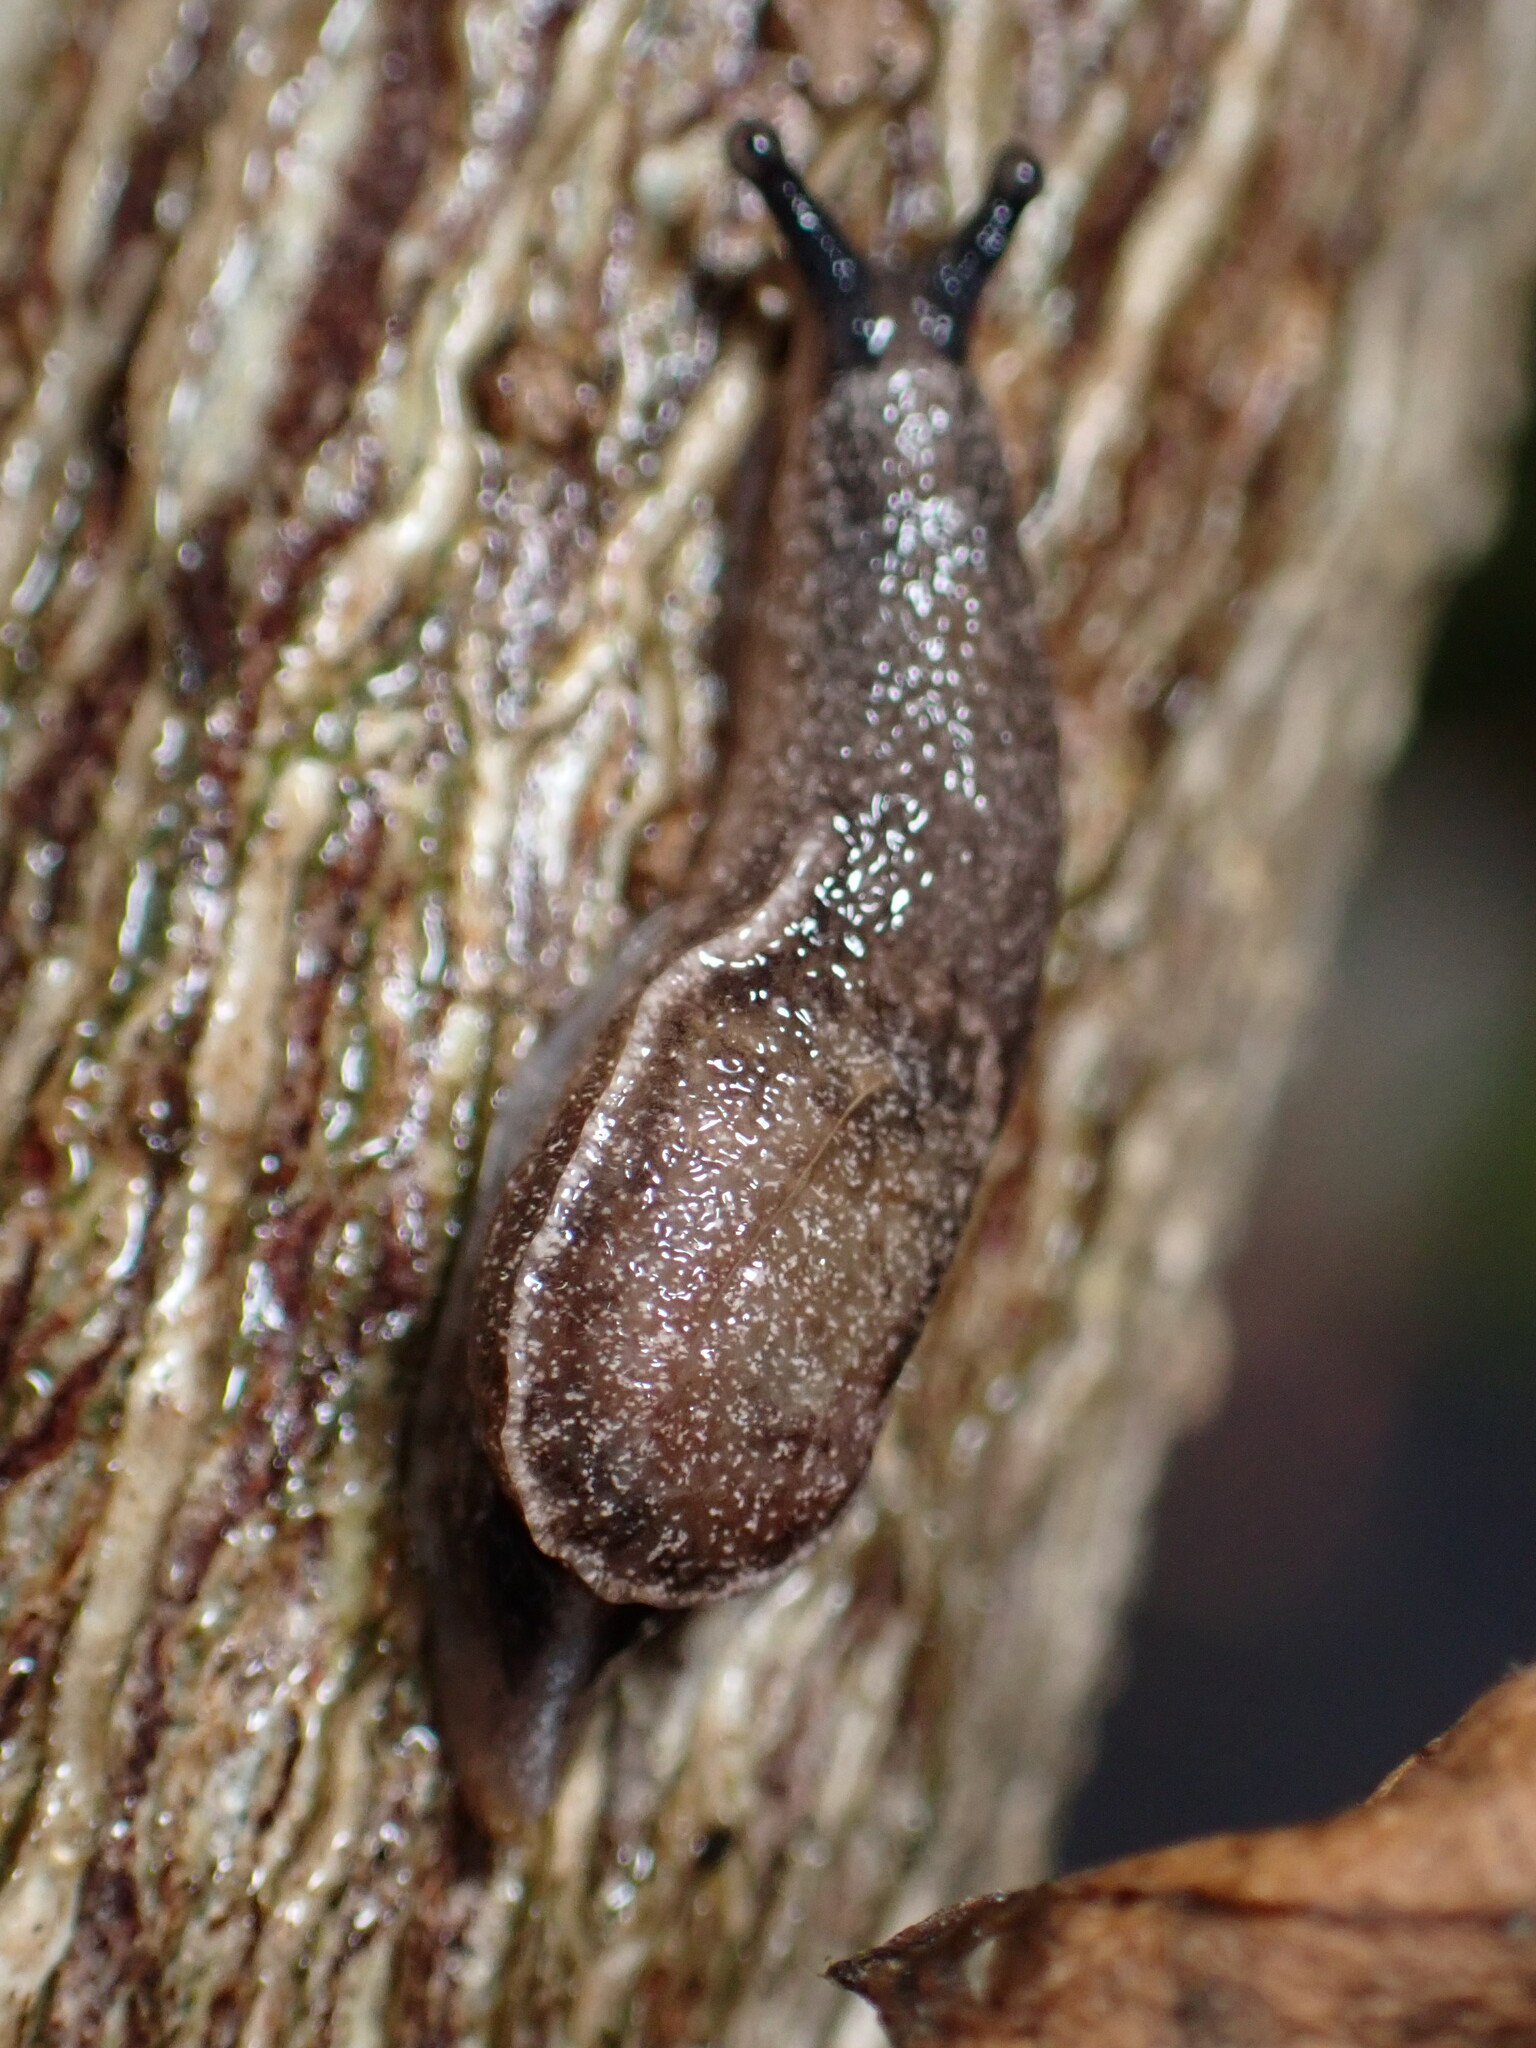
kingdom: Animalia
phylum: Mollusca
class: Gastropoda
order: Stylommatophora
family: Ariophantidae
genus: Parmarion
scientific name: Parmarion martensi
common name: Semi-slug
